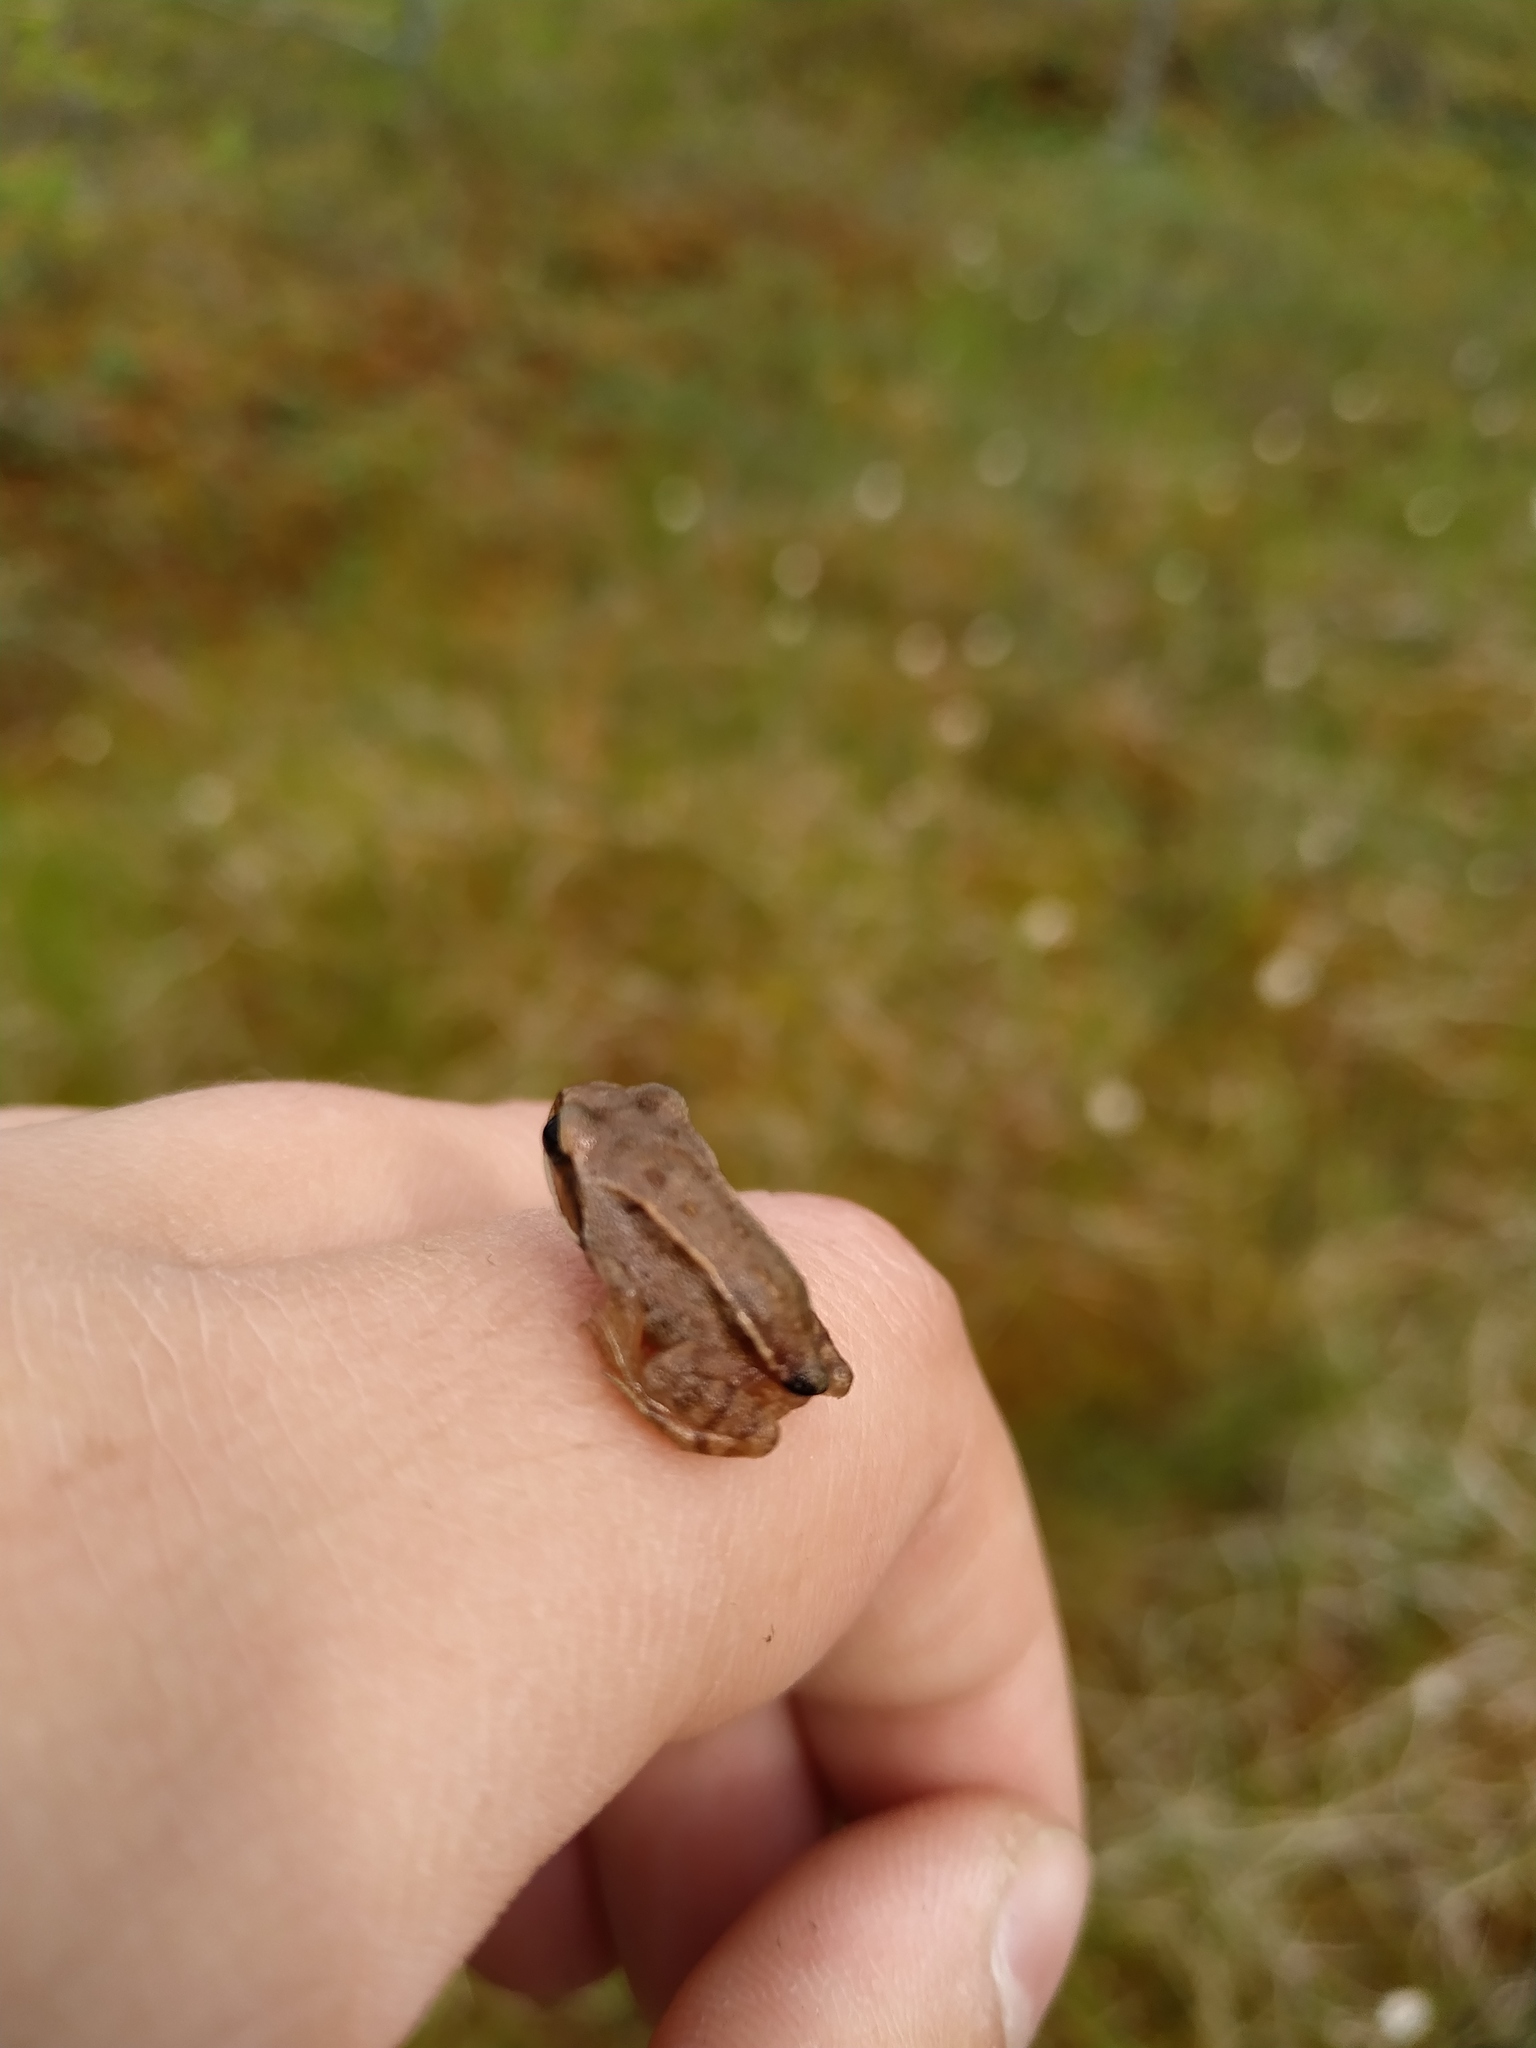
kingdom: Animalia
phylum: Chordata
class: Amphibia
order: Anura
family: Ranidae
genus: Rana
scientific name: Rana arvalis
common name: Moor frog
